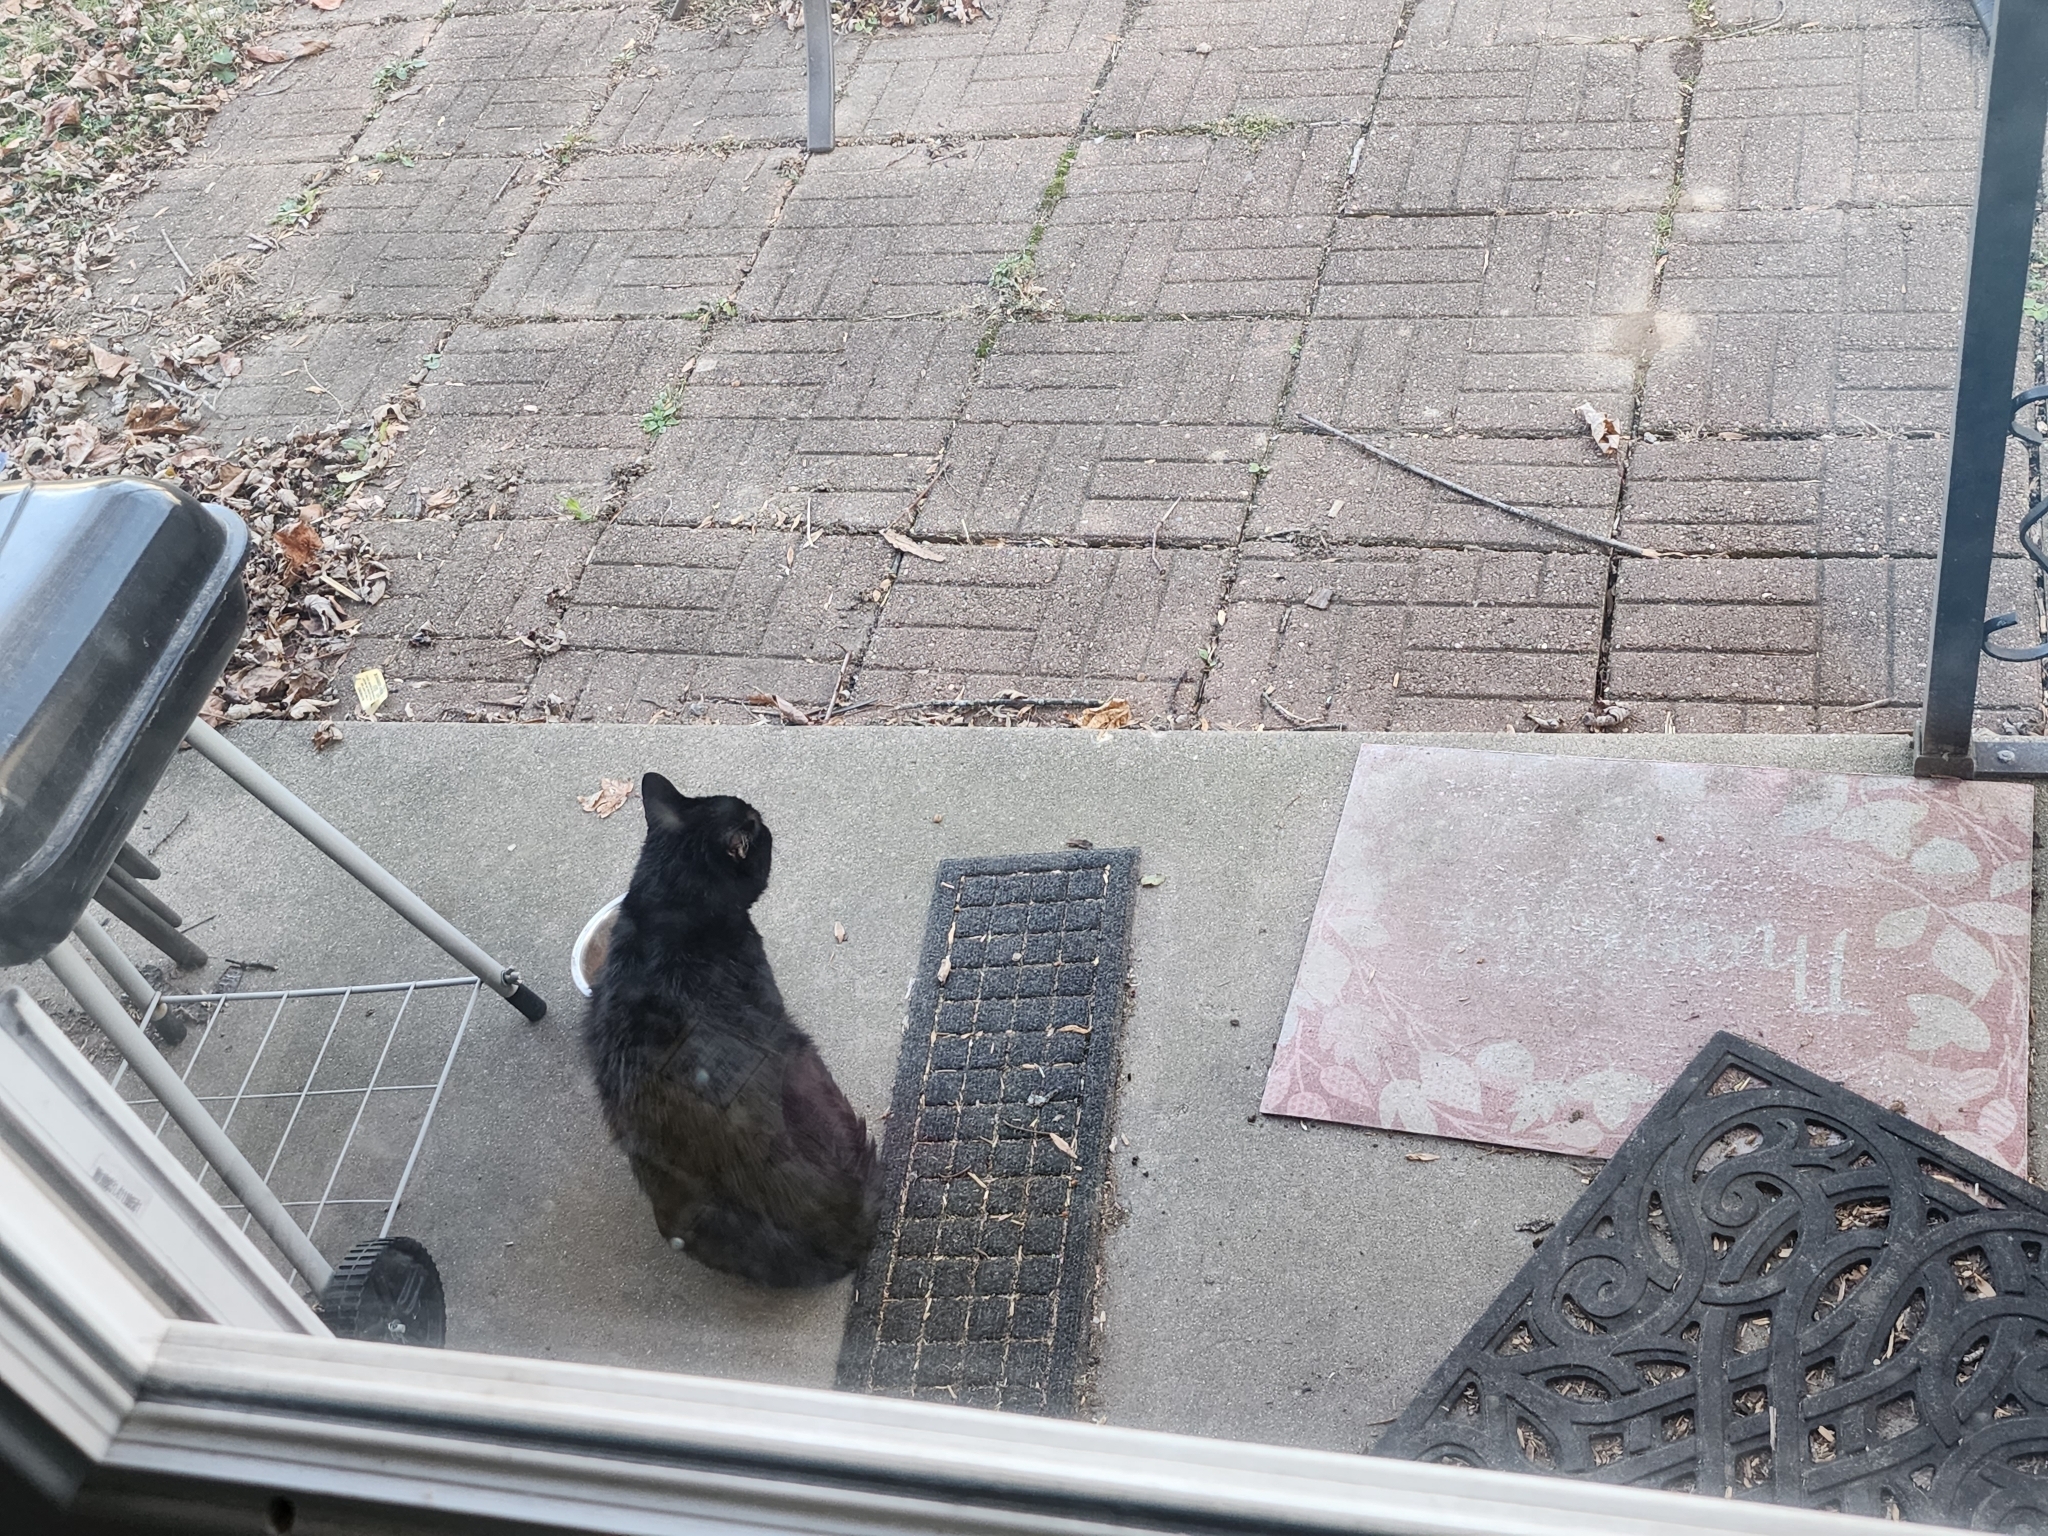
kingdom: Animalia
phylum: Chordata
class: Mammalia
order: Carnivora
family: Felidae
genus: Felis
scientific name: Felis catus
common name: Domestic cat
